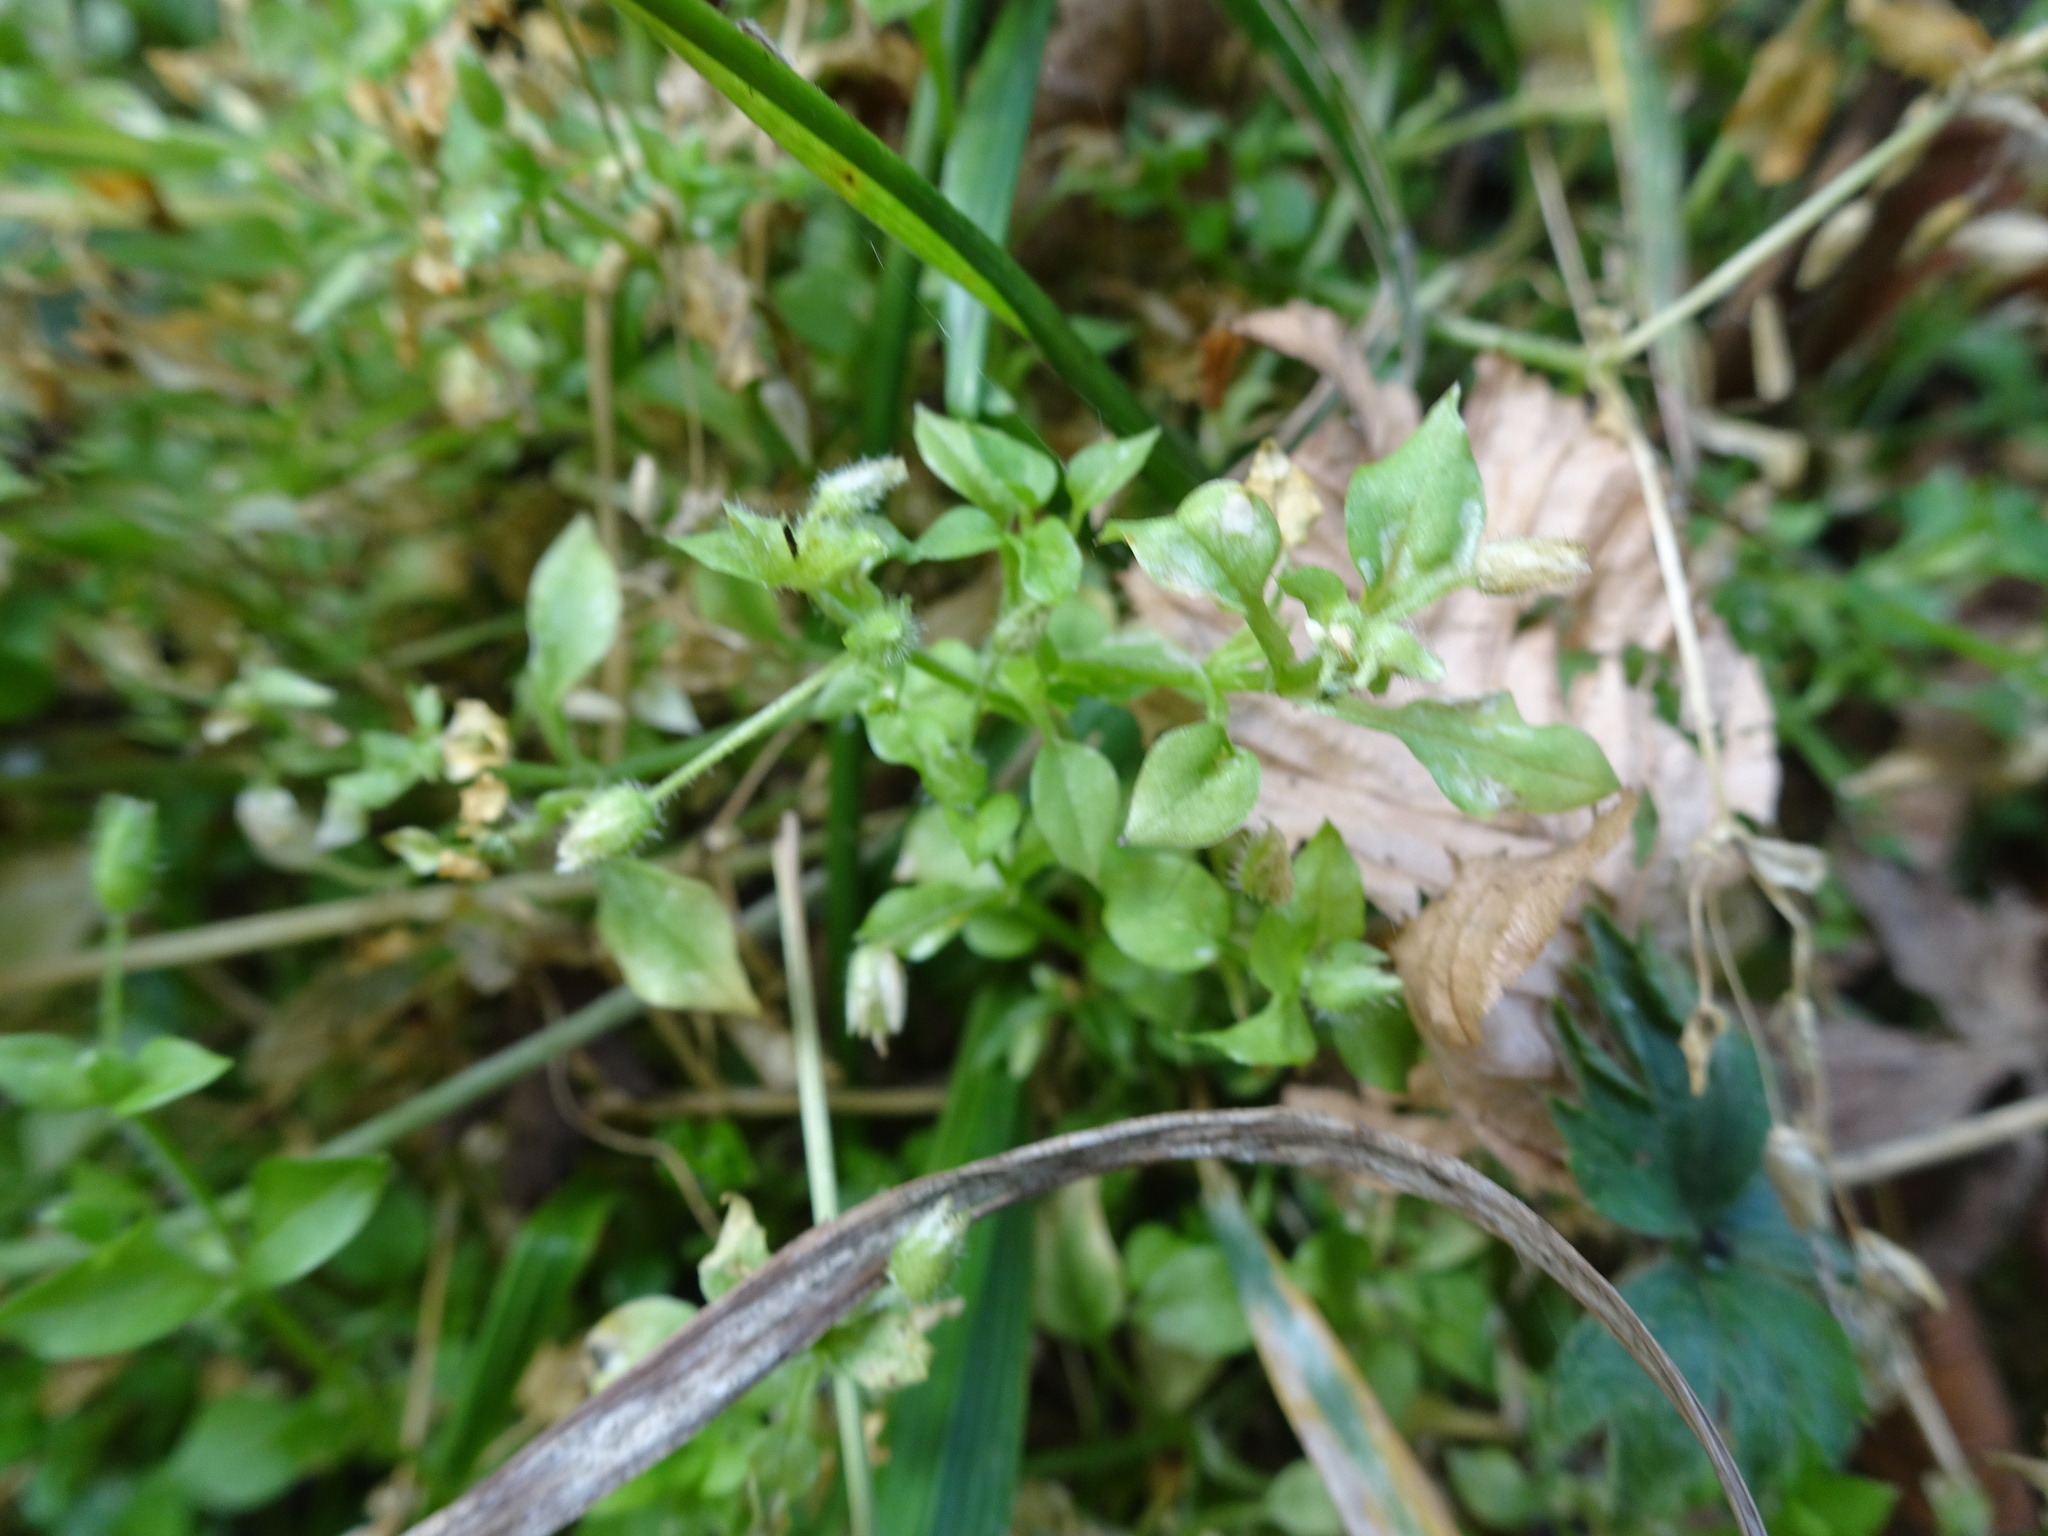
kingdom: Plantae
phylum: Tracheophyta
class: Magnoliopsida
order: Caryophyllales
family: Caryophyllaceae
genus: Stellaria
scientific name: Stellaria media
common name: Common chickweed
